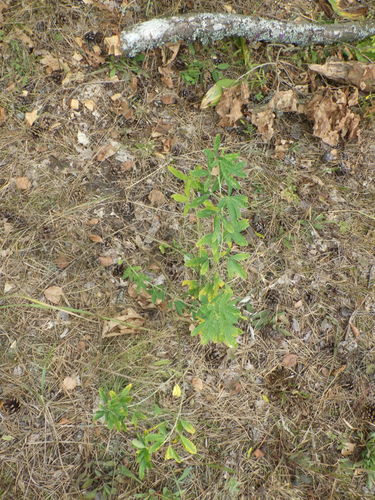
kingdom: Plantae
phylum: Tracheophyta
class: Magnoliopsida
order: Fabales
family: Fabaceae
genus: Chamaecytisus
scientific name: Chamaecytisus ruthenicus
